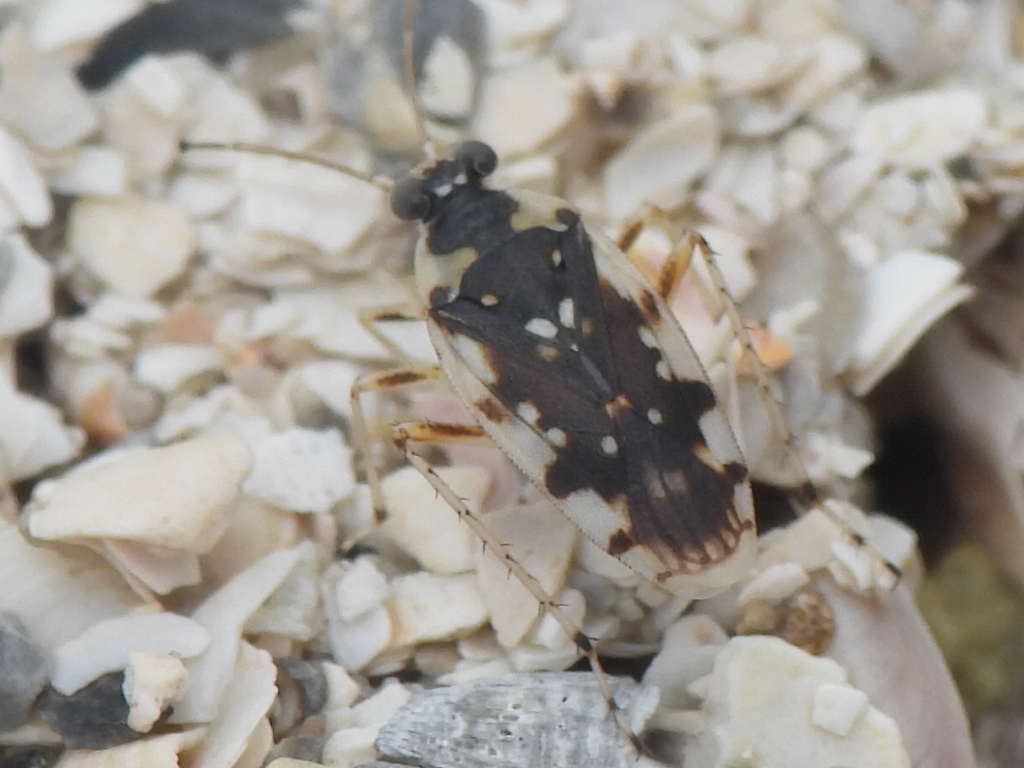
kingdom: Animalia
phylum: Arthropoda
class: Insecta
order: Hemiptera
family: Saldidae
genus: Pentacora
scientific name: Pentacora signoreti
